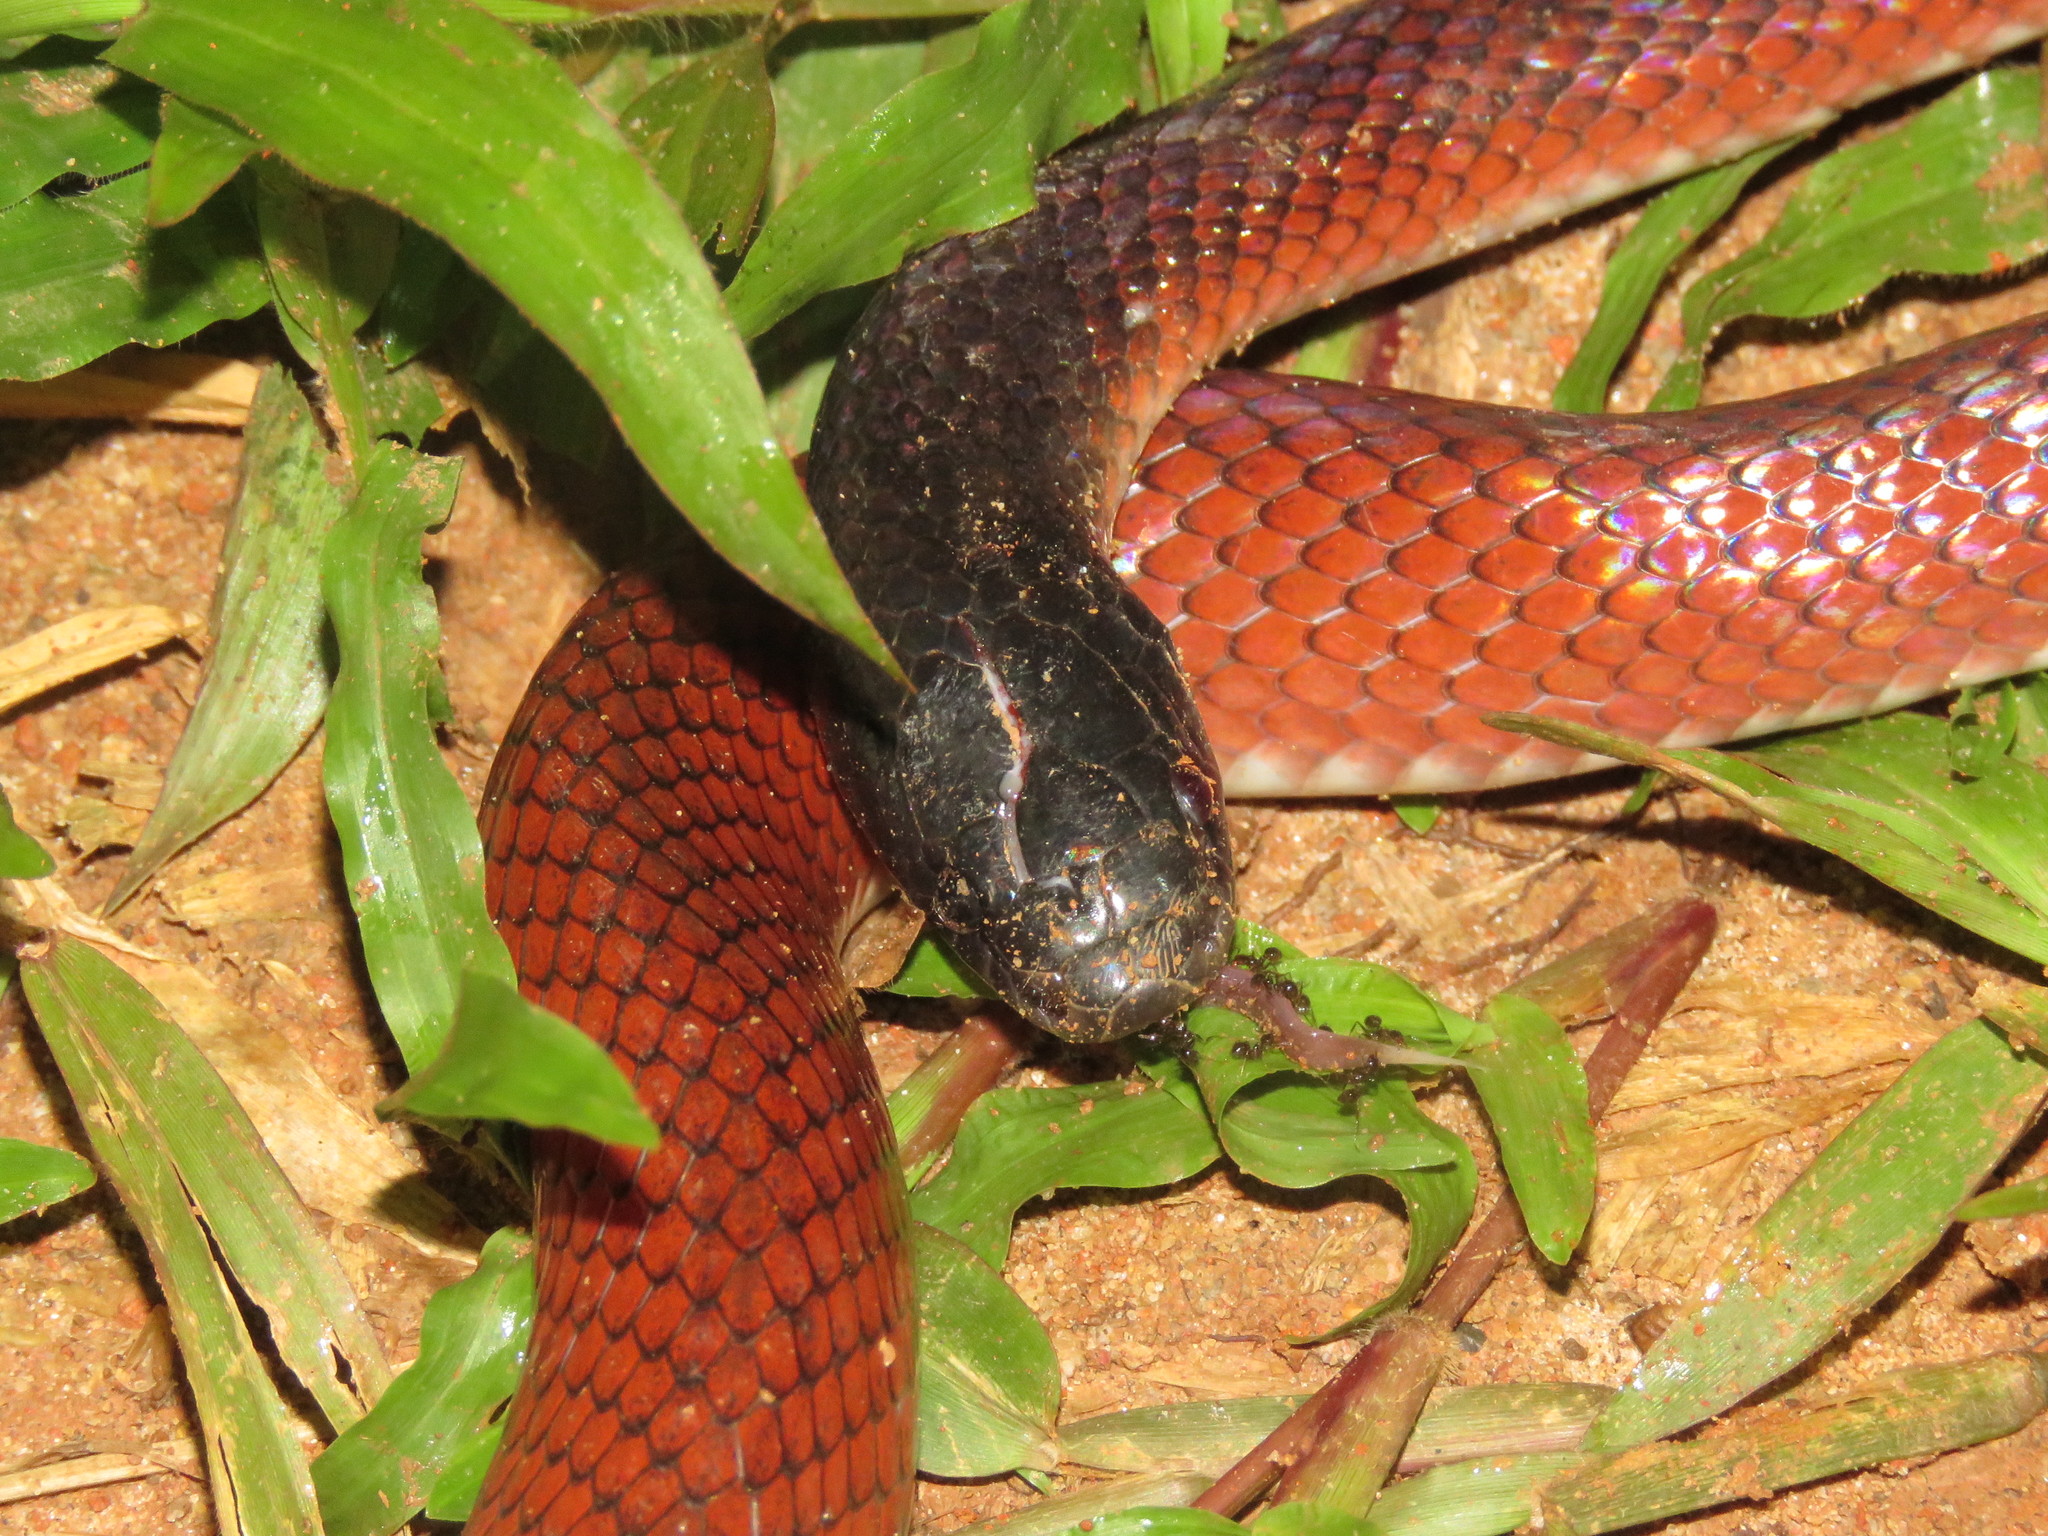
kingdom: Animalia
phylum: Chordata
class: Squamata
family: Colubridae
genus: Pseudoboa
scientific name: Pseudoboa coronata
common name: Crowned false boa
